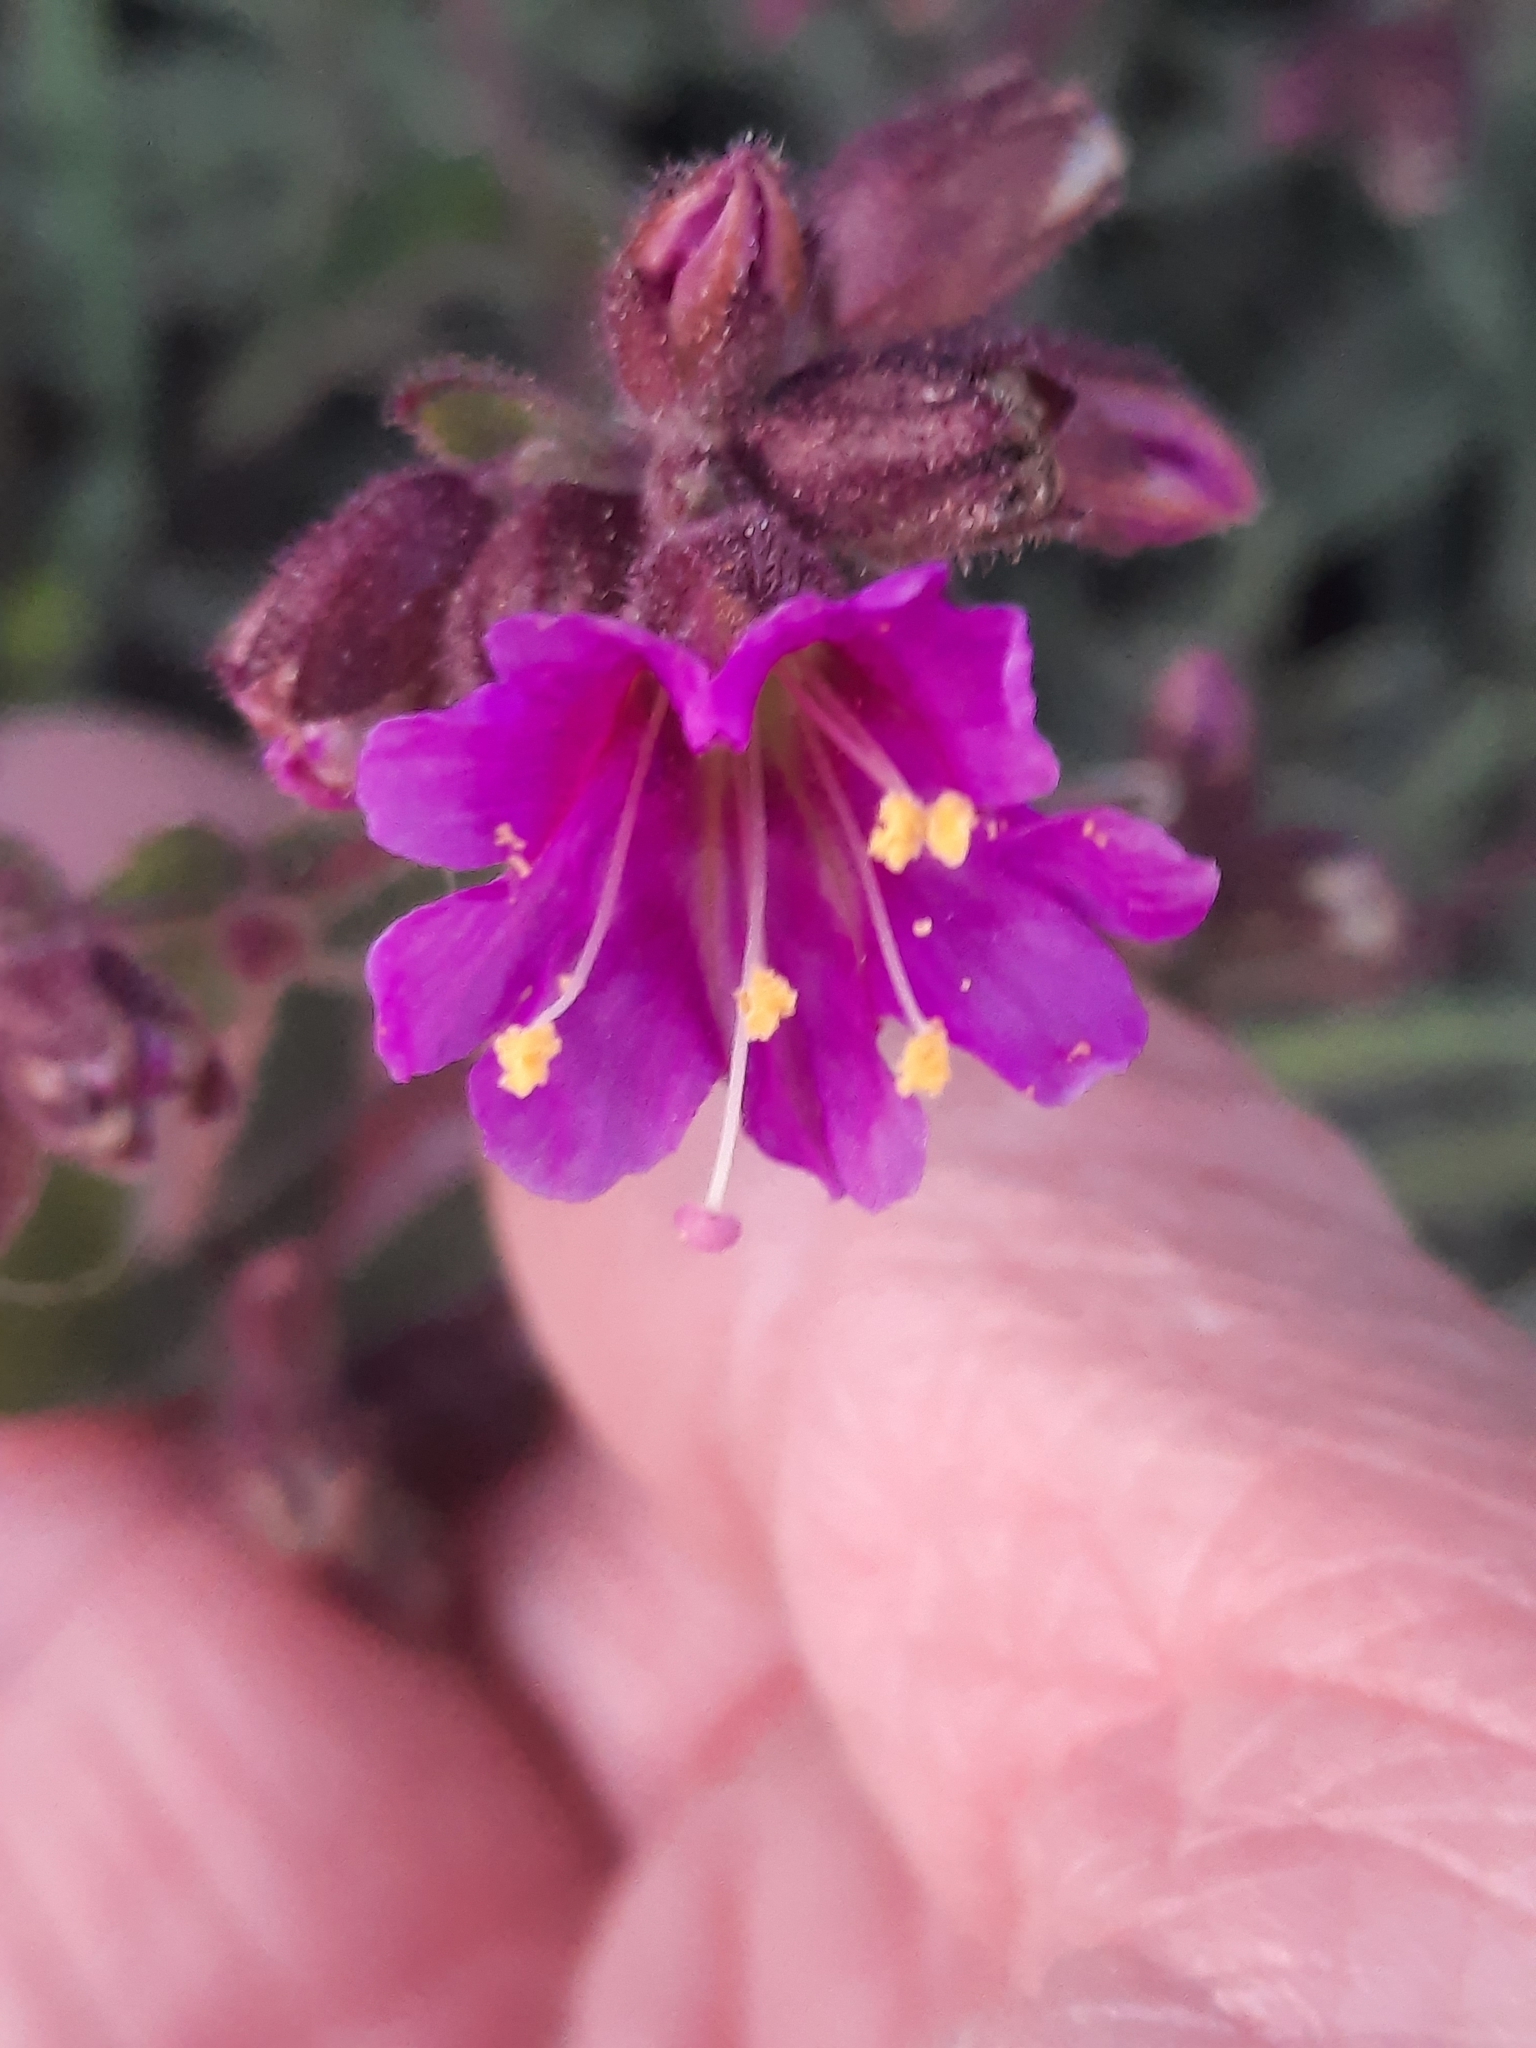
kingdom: Plantae
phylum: Tracheophyta
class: Magnoliopsida
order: Caryophyllales
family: Nyctaginaceae
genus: Mirabilis
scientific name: Mirabilis laevis
